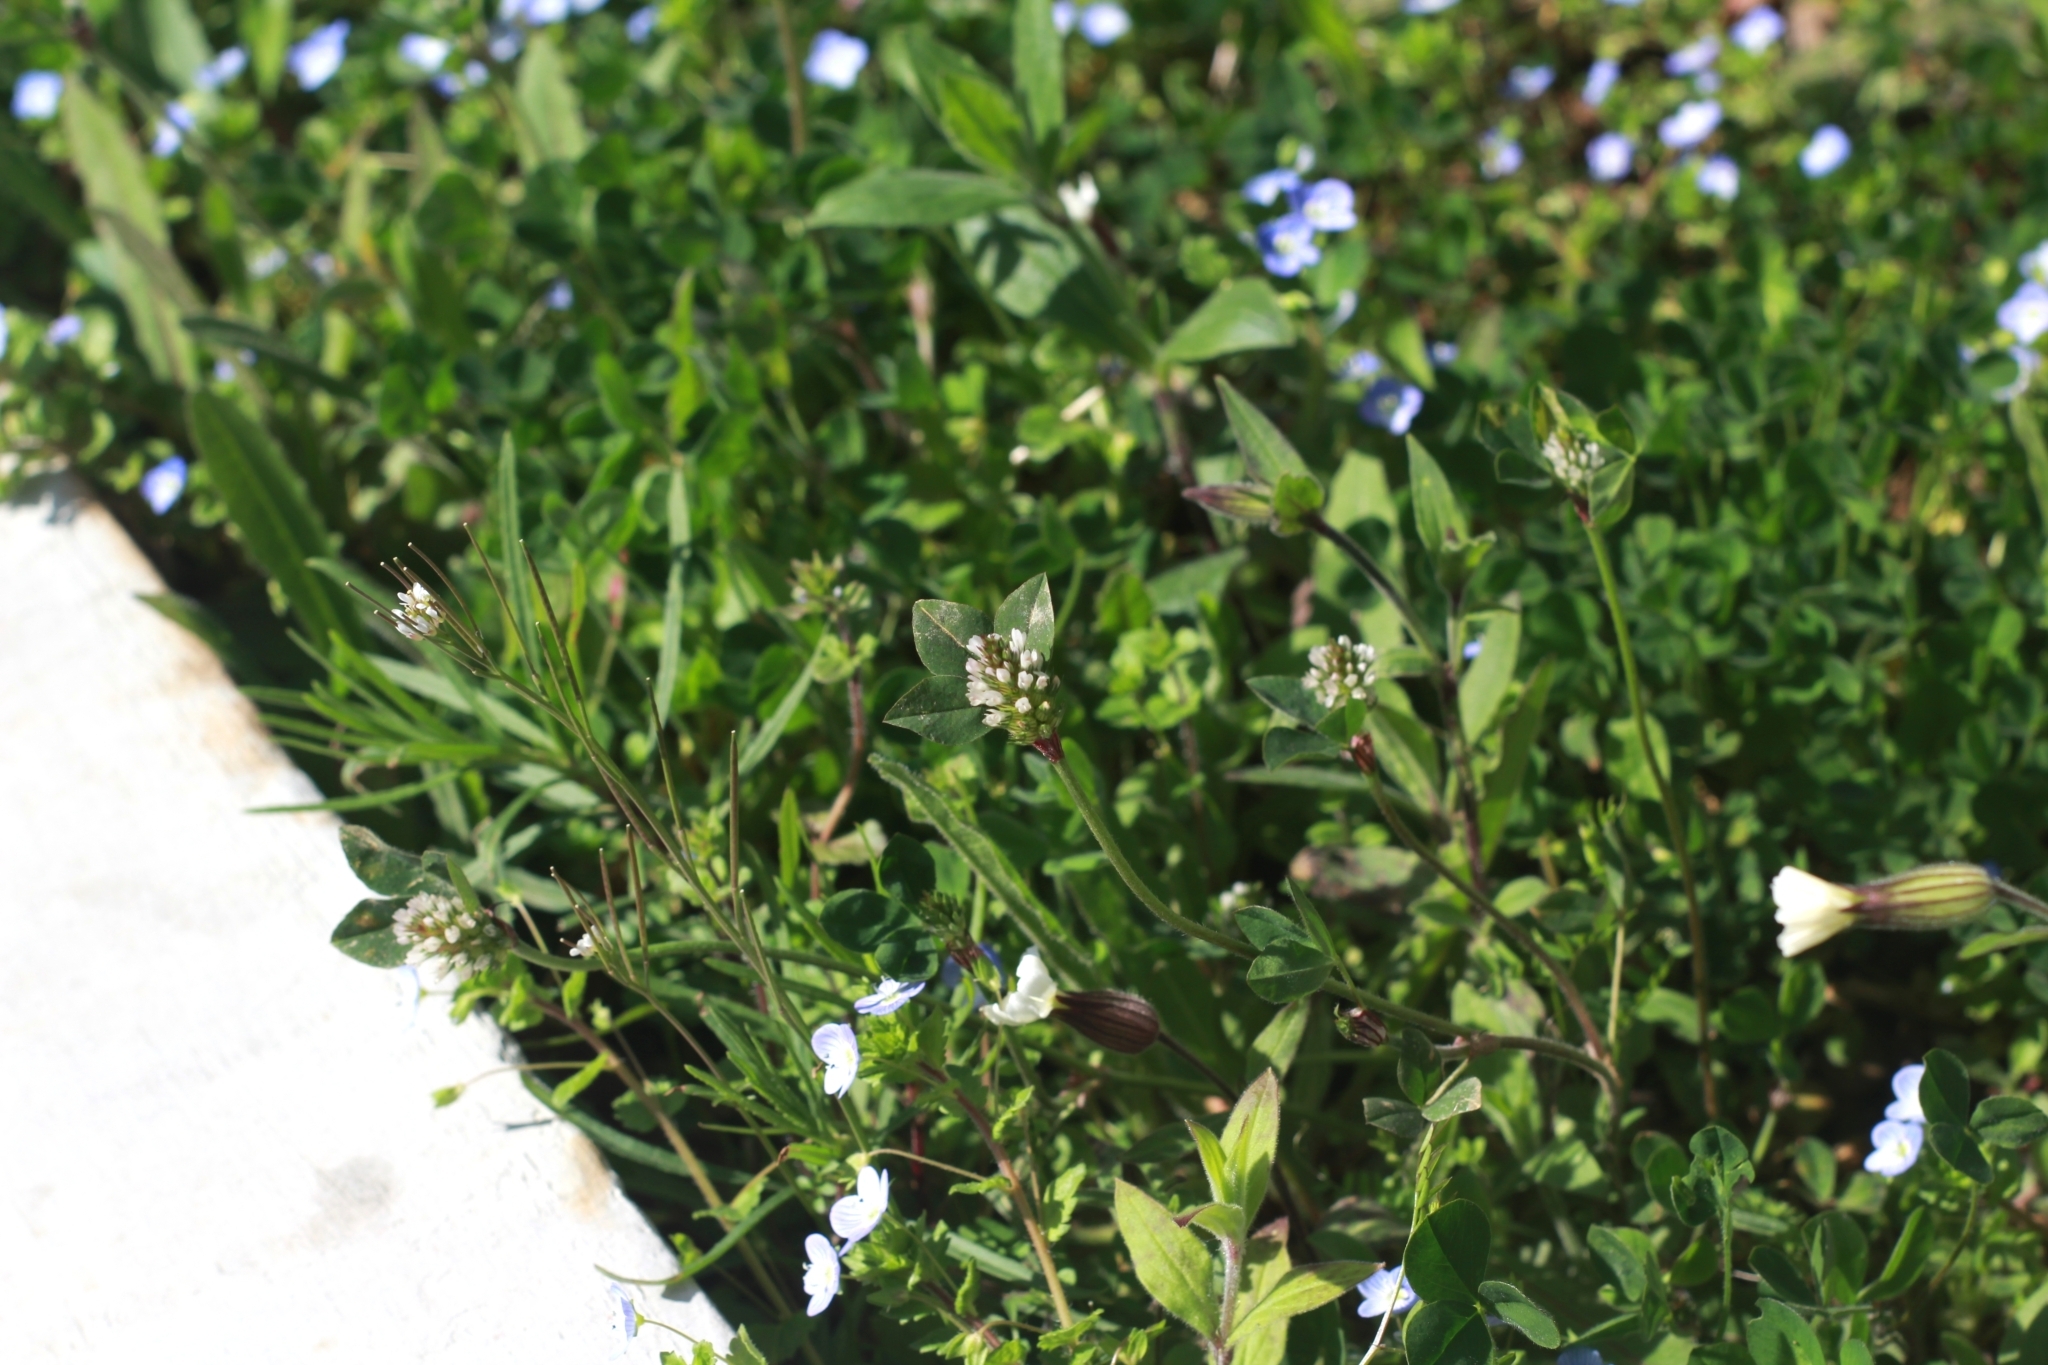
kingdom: Plantae
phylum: Tracheophyta
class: Magnoliopsida
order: Fabales
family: Fabaceae
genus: Trifolium
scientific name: Trifolium striatum
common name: Knotted clover
